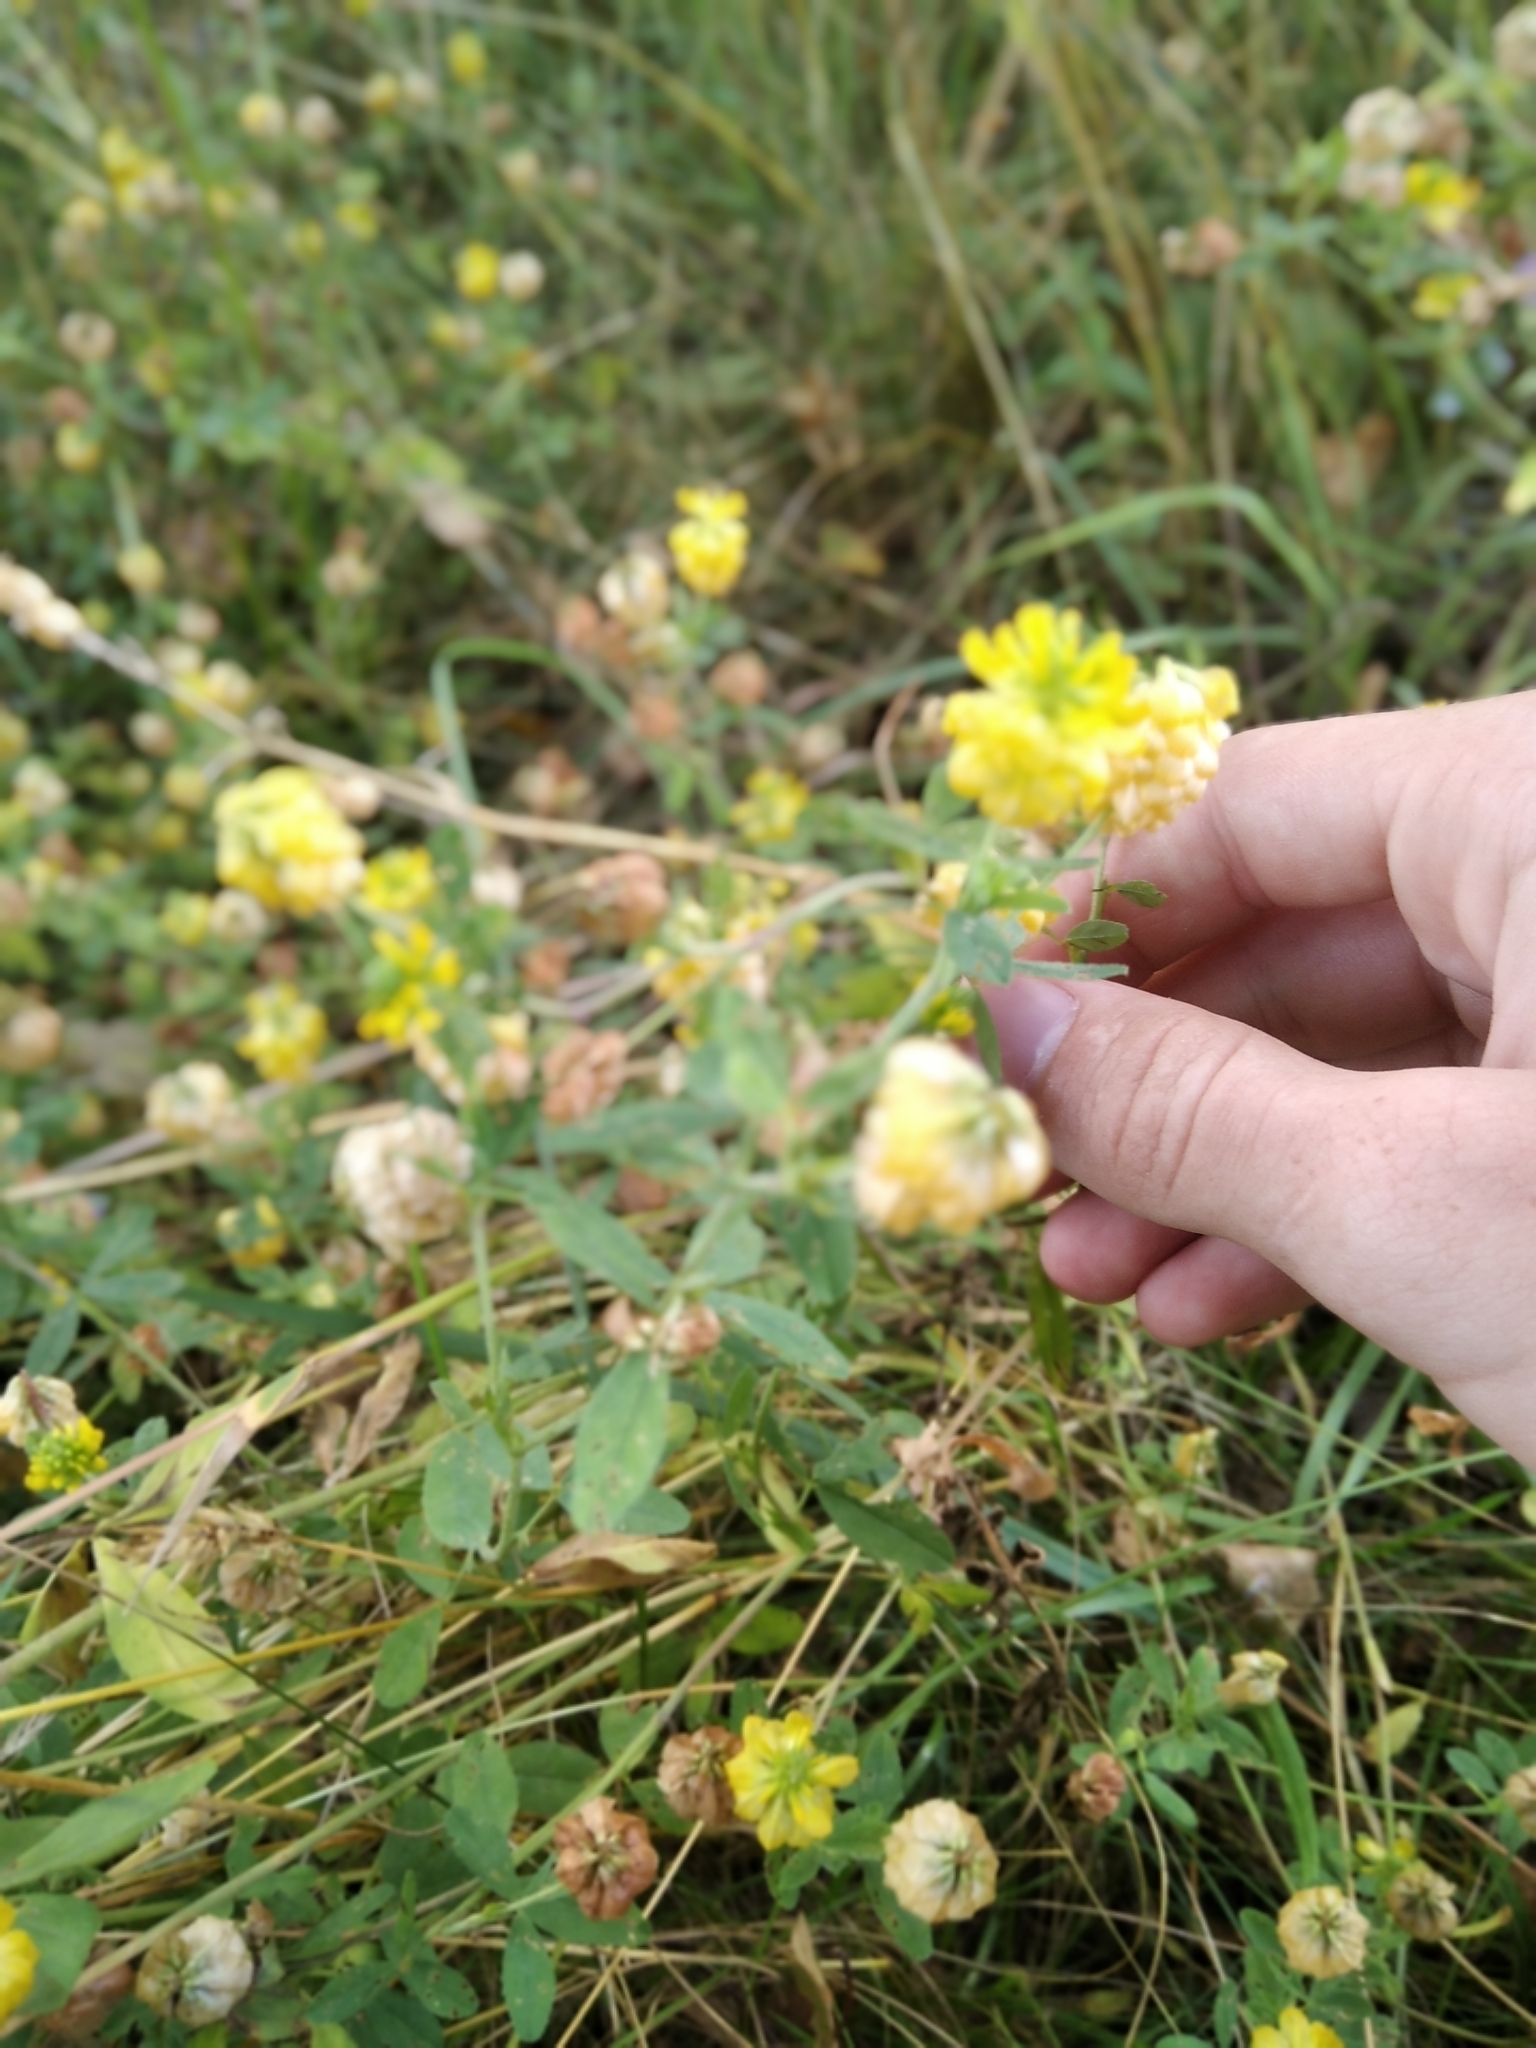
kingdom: Plantae
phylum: Tracheophyta
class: Magnoliopsida
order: Fabales
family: Fabaceae
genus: Trifolium
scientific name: Trifolium aureum
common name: Golden clover
